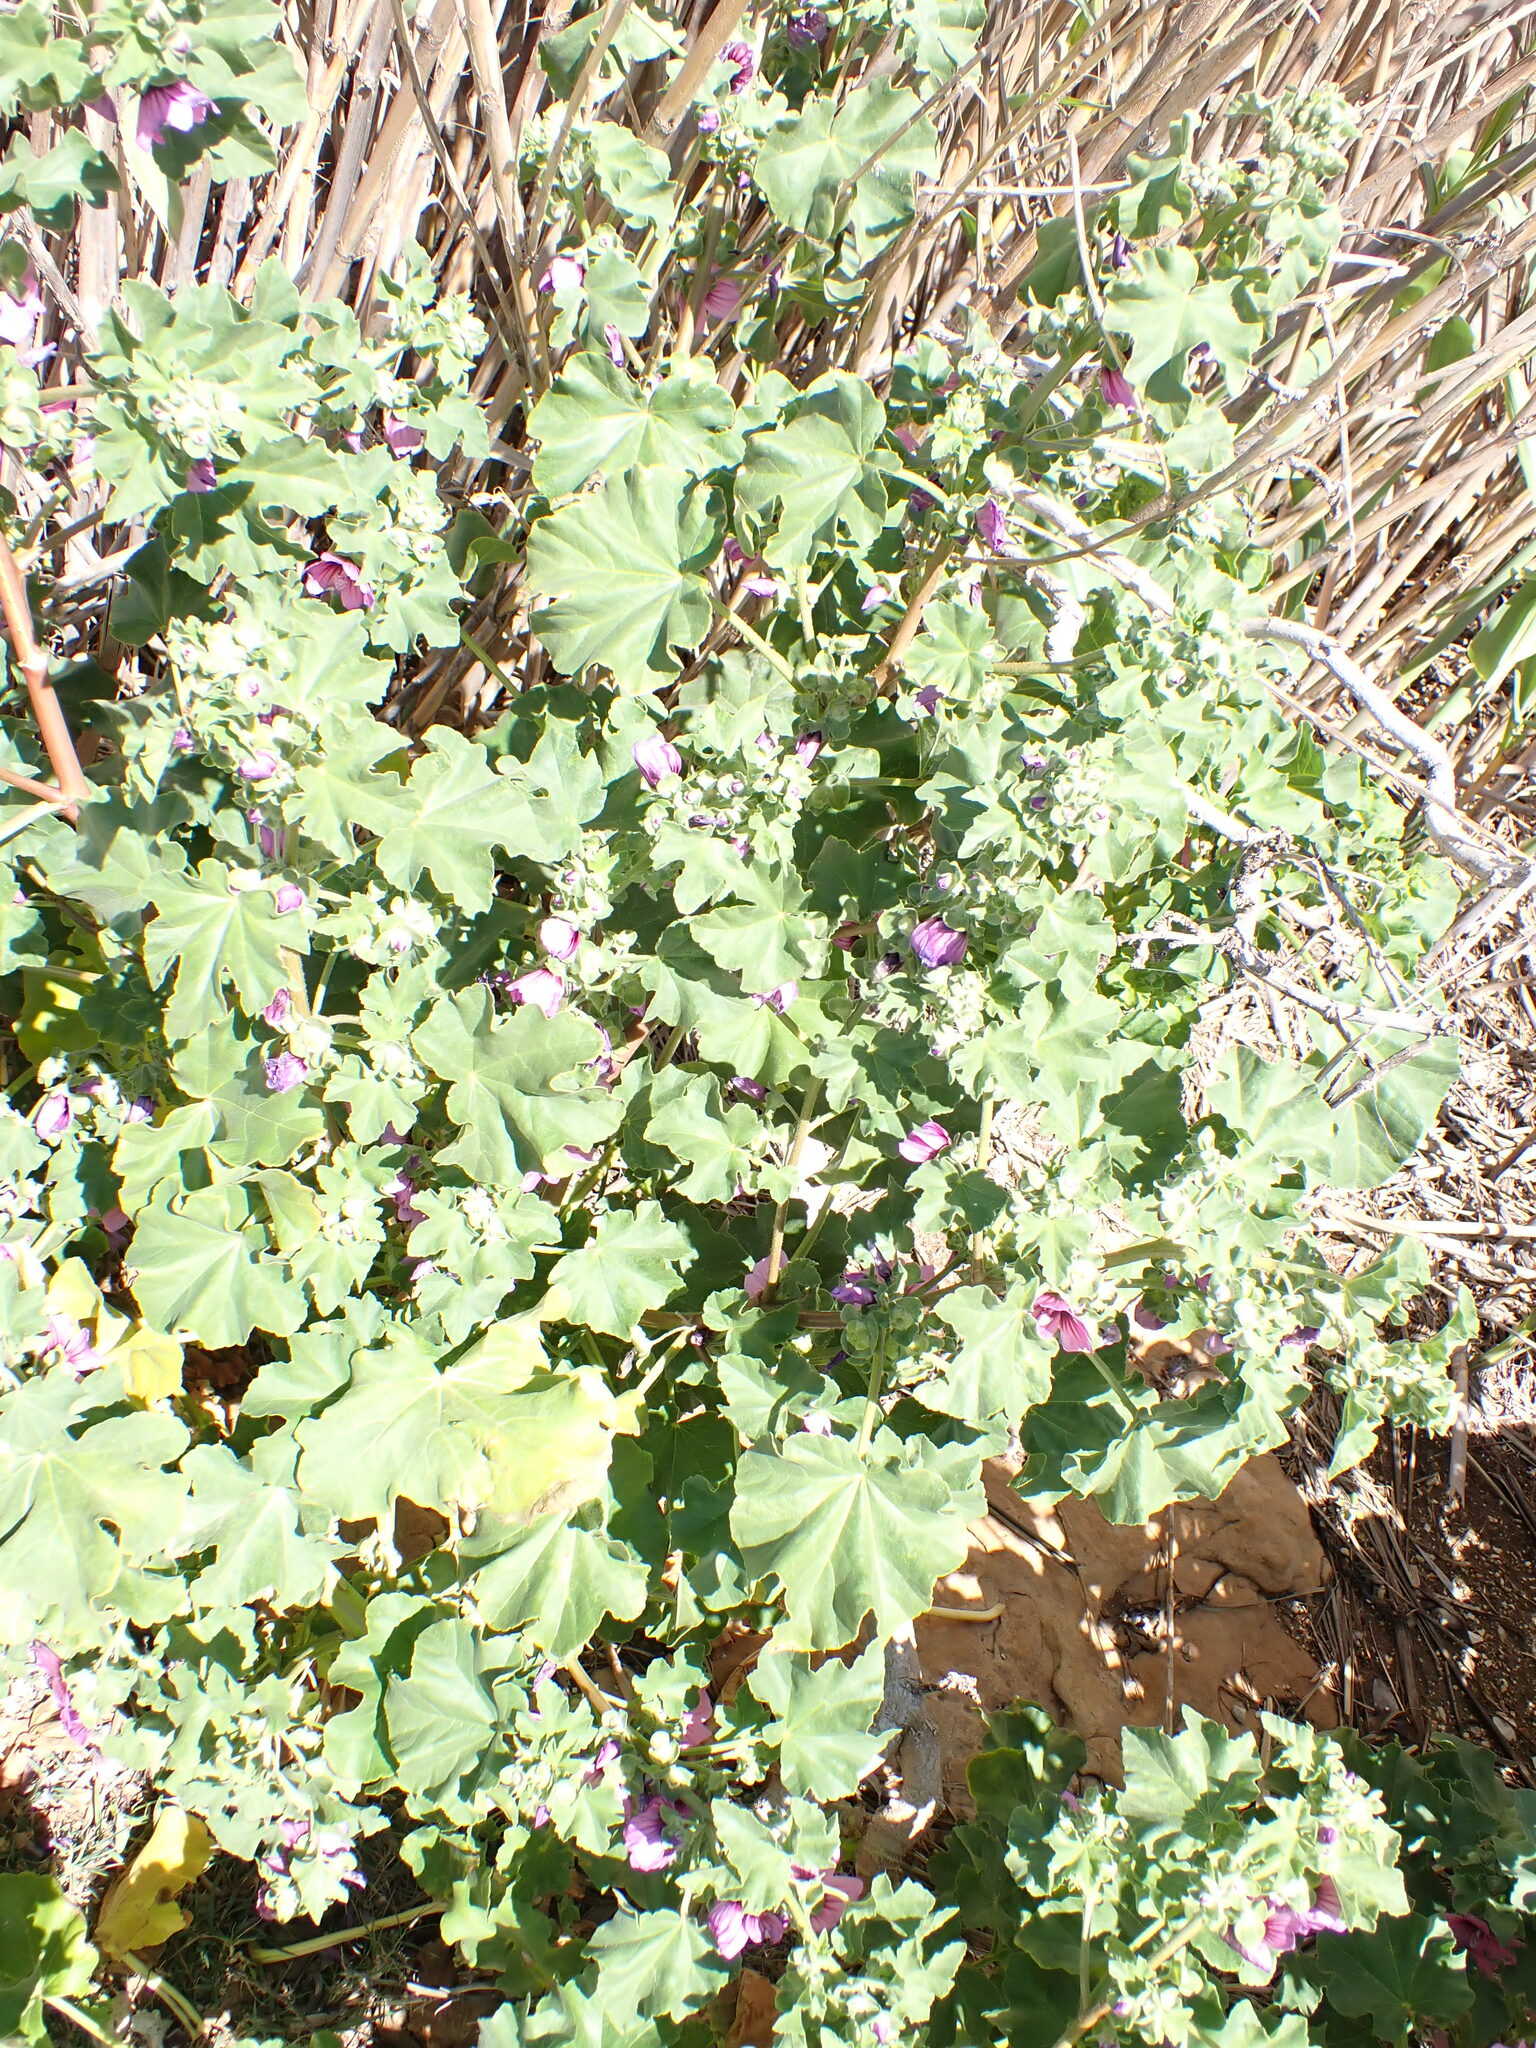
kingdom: Plantae
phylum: Tracheophyta
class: Magnoliopsida
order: Malvales
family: Malvaceae
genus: Malva
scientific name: Malva arborea
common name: Tree mallow
